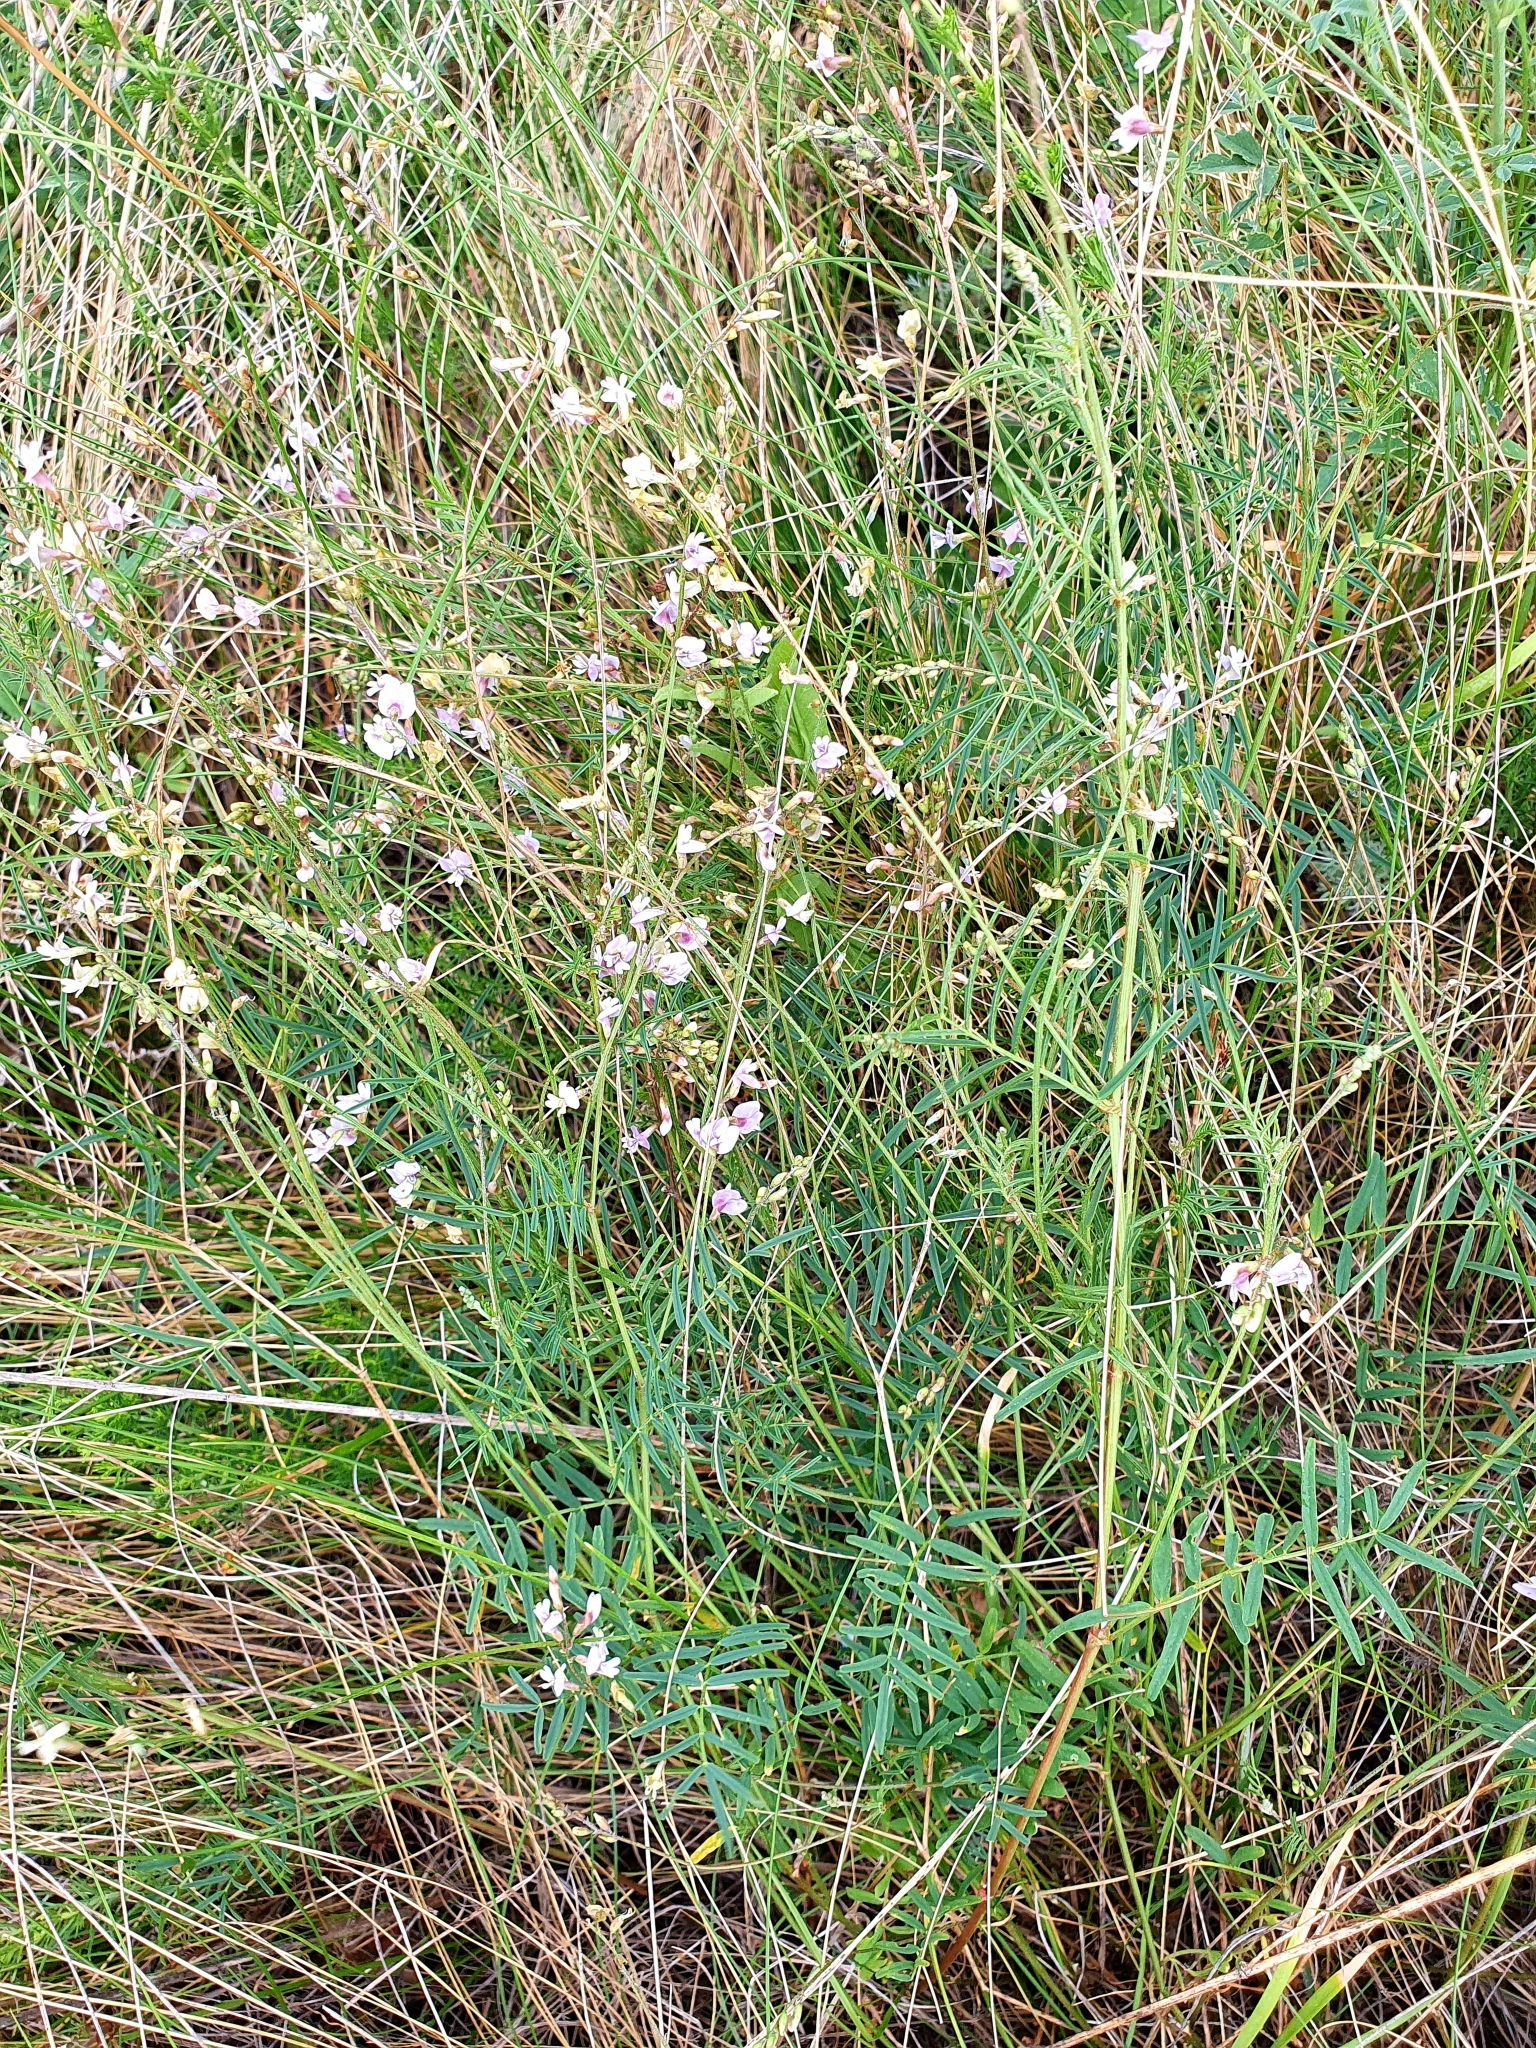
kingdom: Plantae
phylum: Tracheophyta
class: Magnoliopsida
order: Fabales
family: Fabaceae
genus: Astragalus
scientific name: Astragalus austriacus
